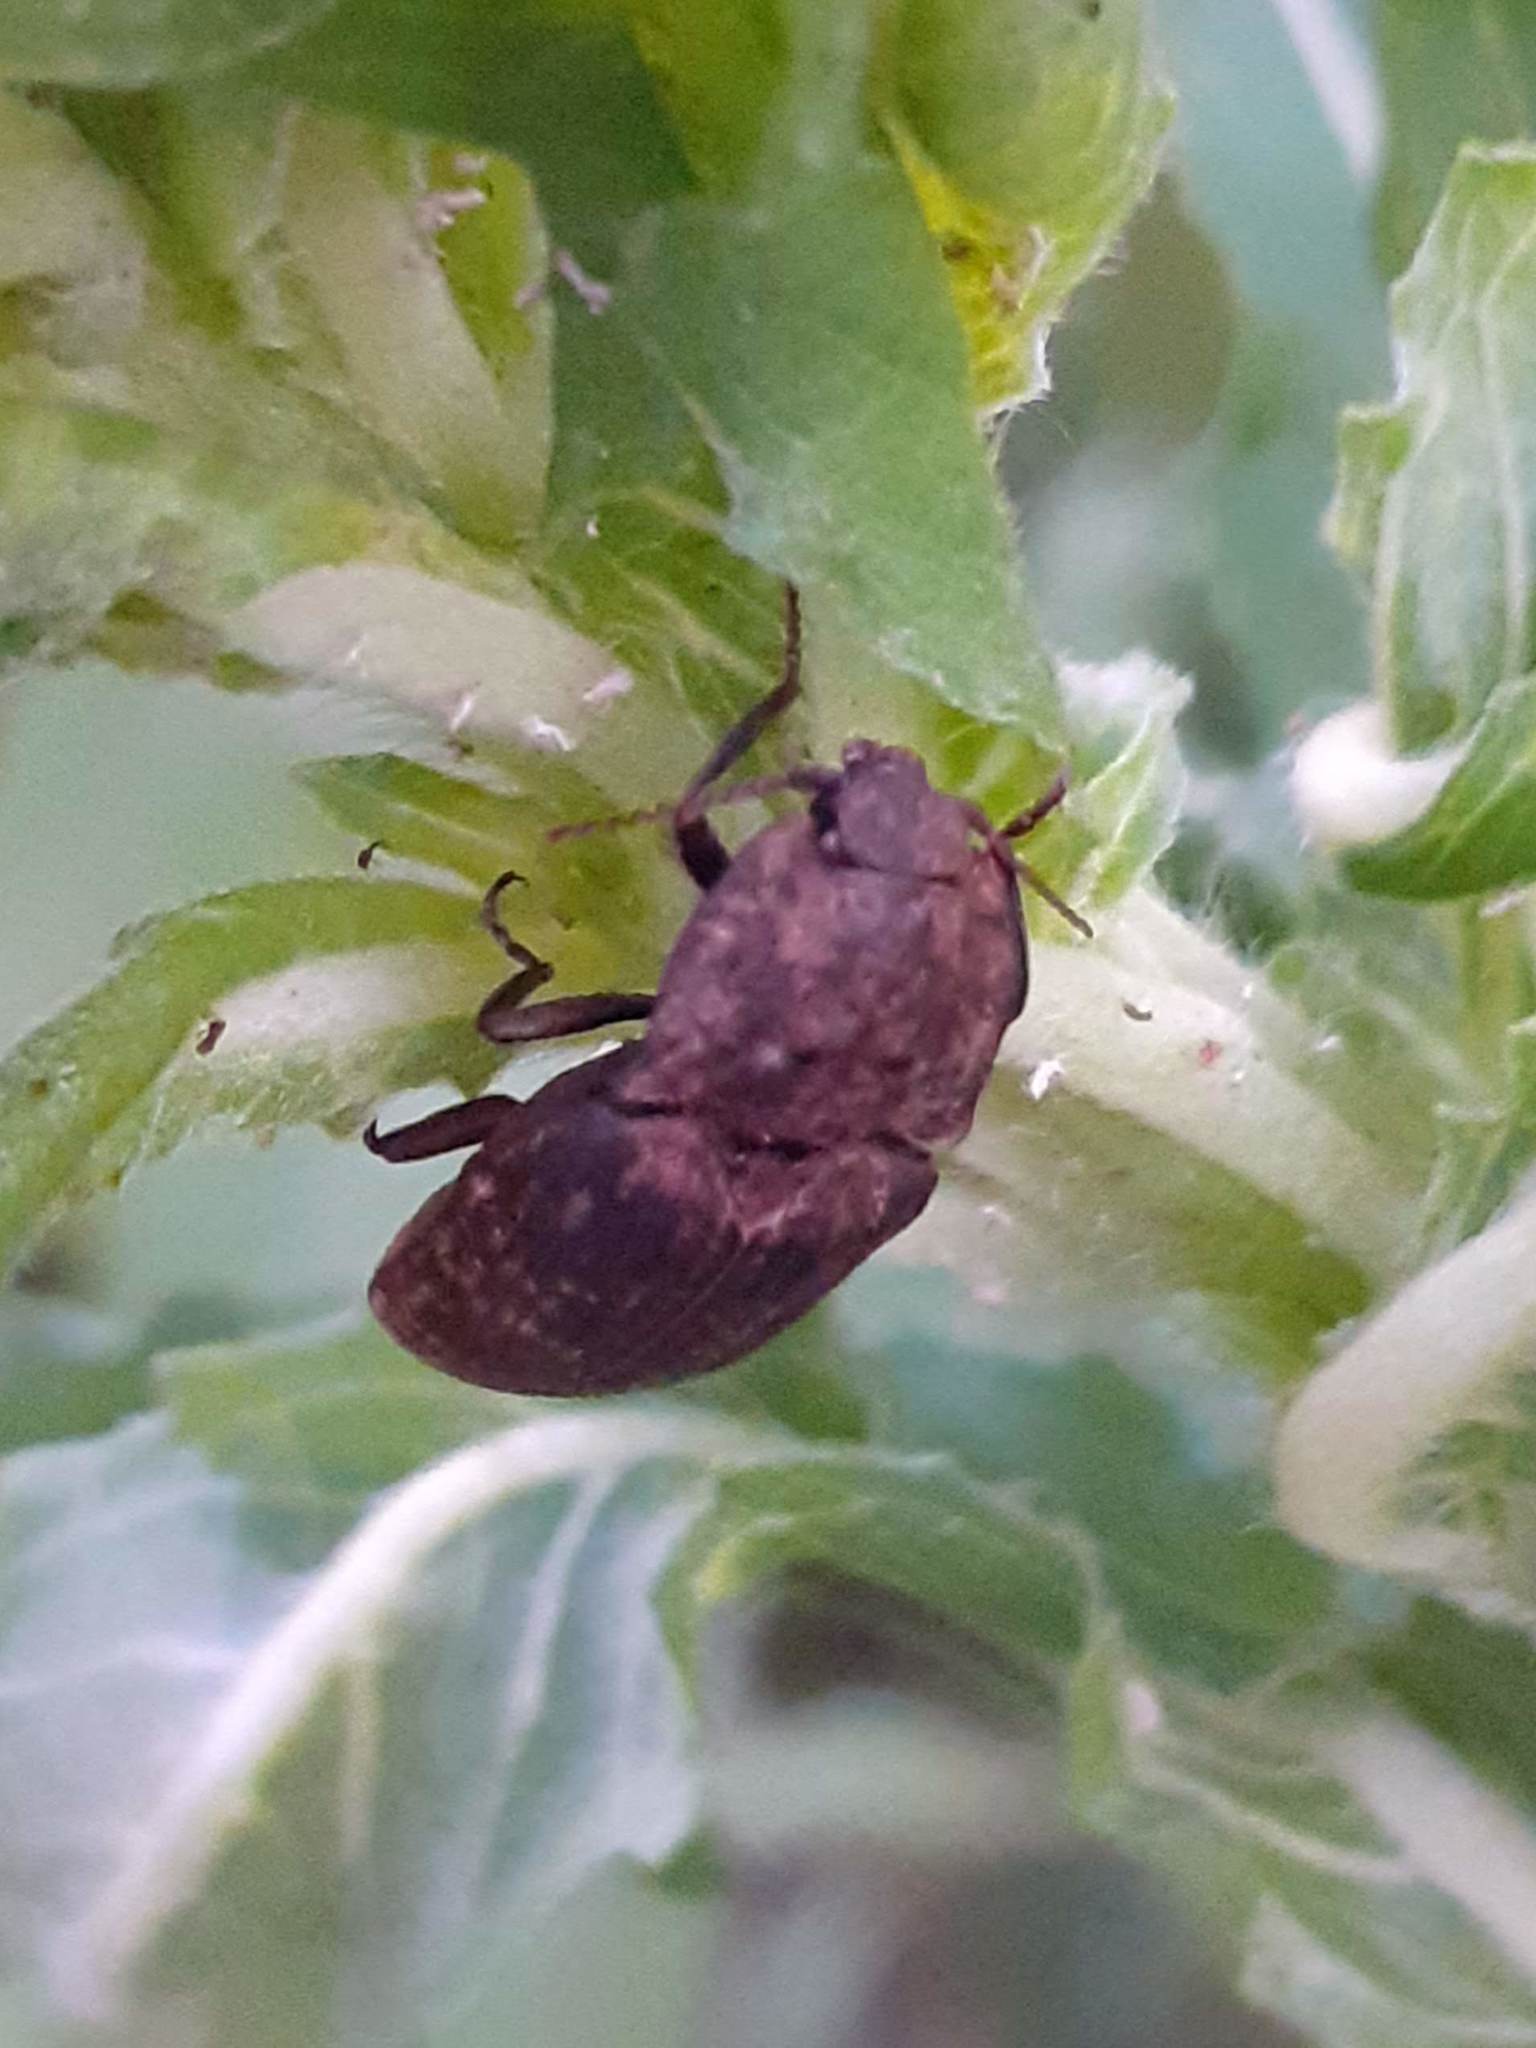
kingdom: Animalia
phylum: Arthropoda
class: Insecta
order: Coleoptera
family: Elateridae
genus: Agrypnus
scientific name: Agrypnus murinus
